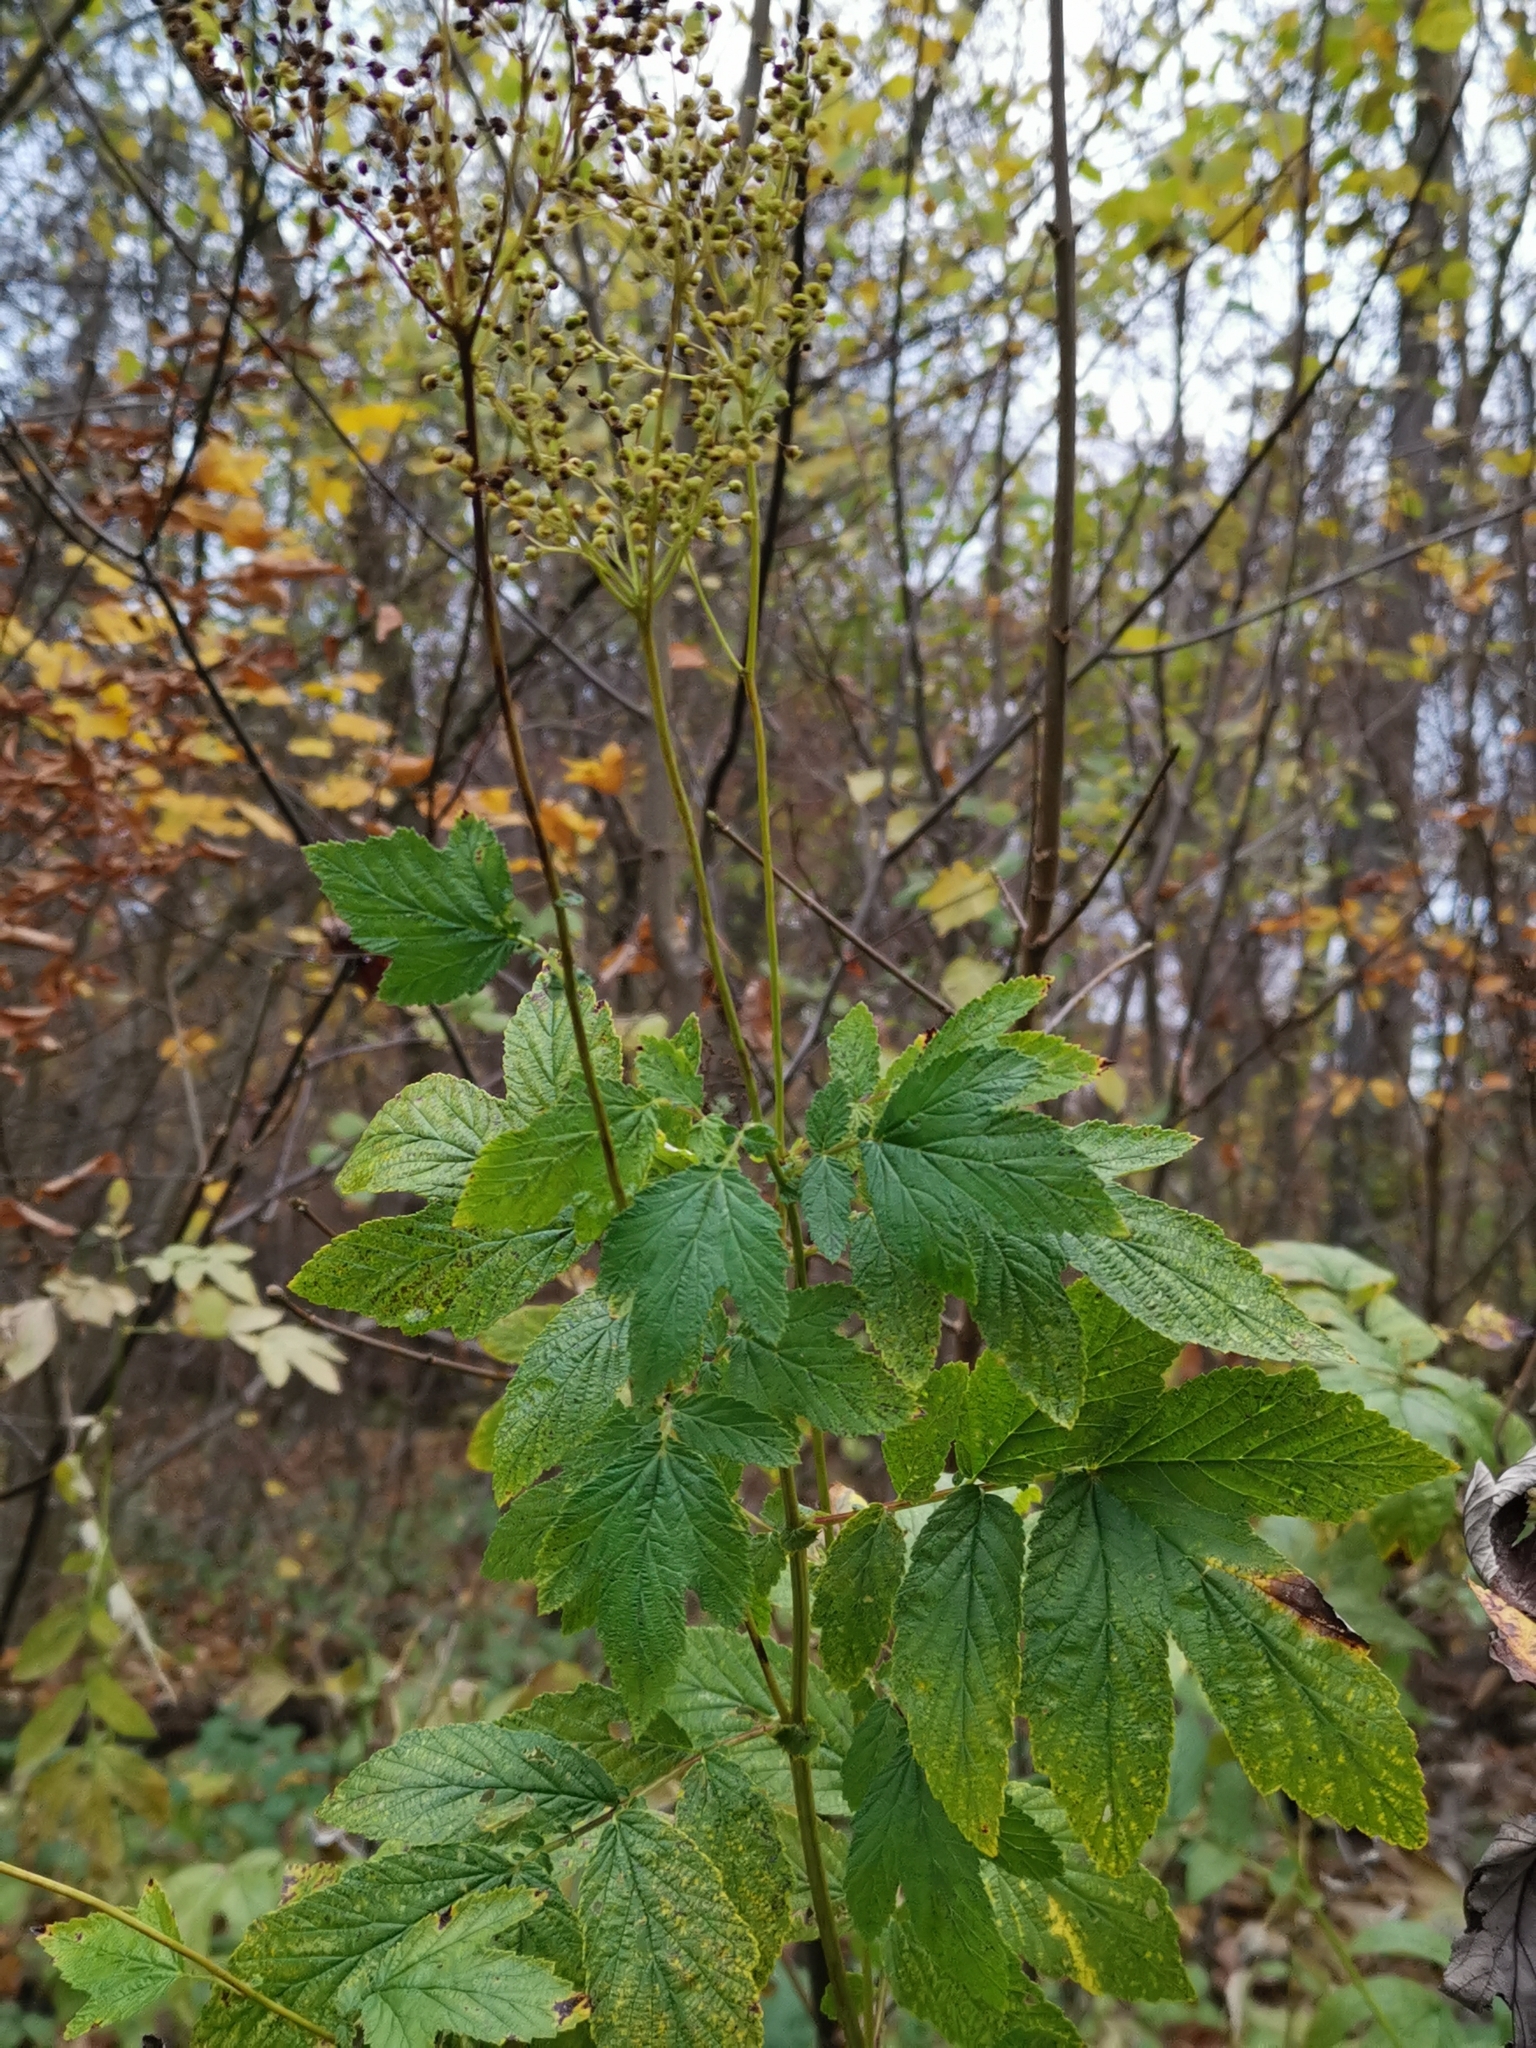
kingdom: Plantae
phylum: Tracheophyta
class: Magnoliopsida
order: Rosales
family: Rosaceae
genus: Filipendula
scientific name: Filipendula ulmaria
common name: Meadowsweet
